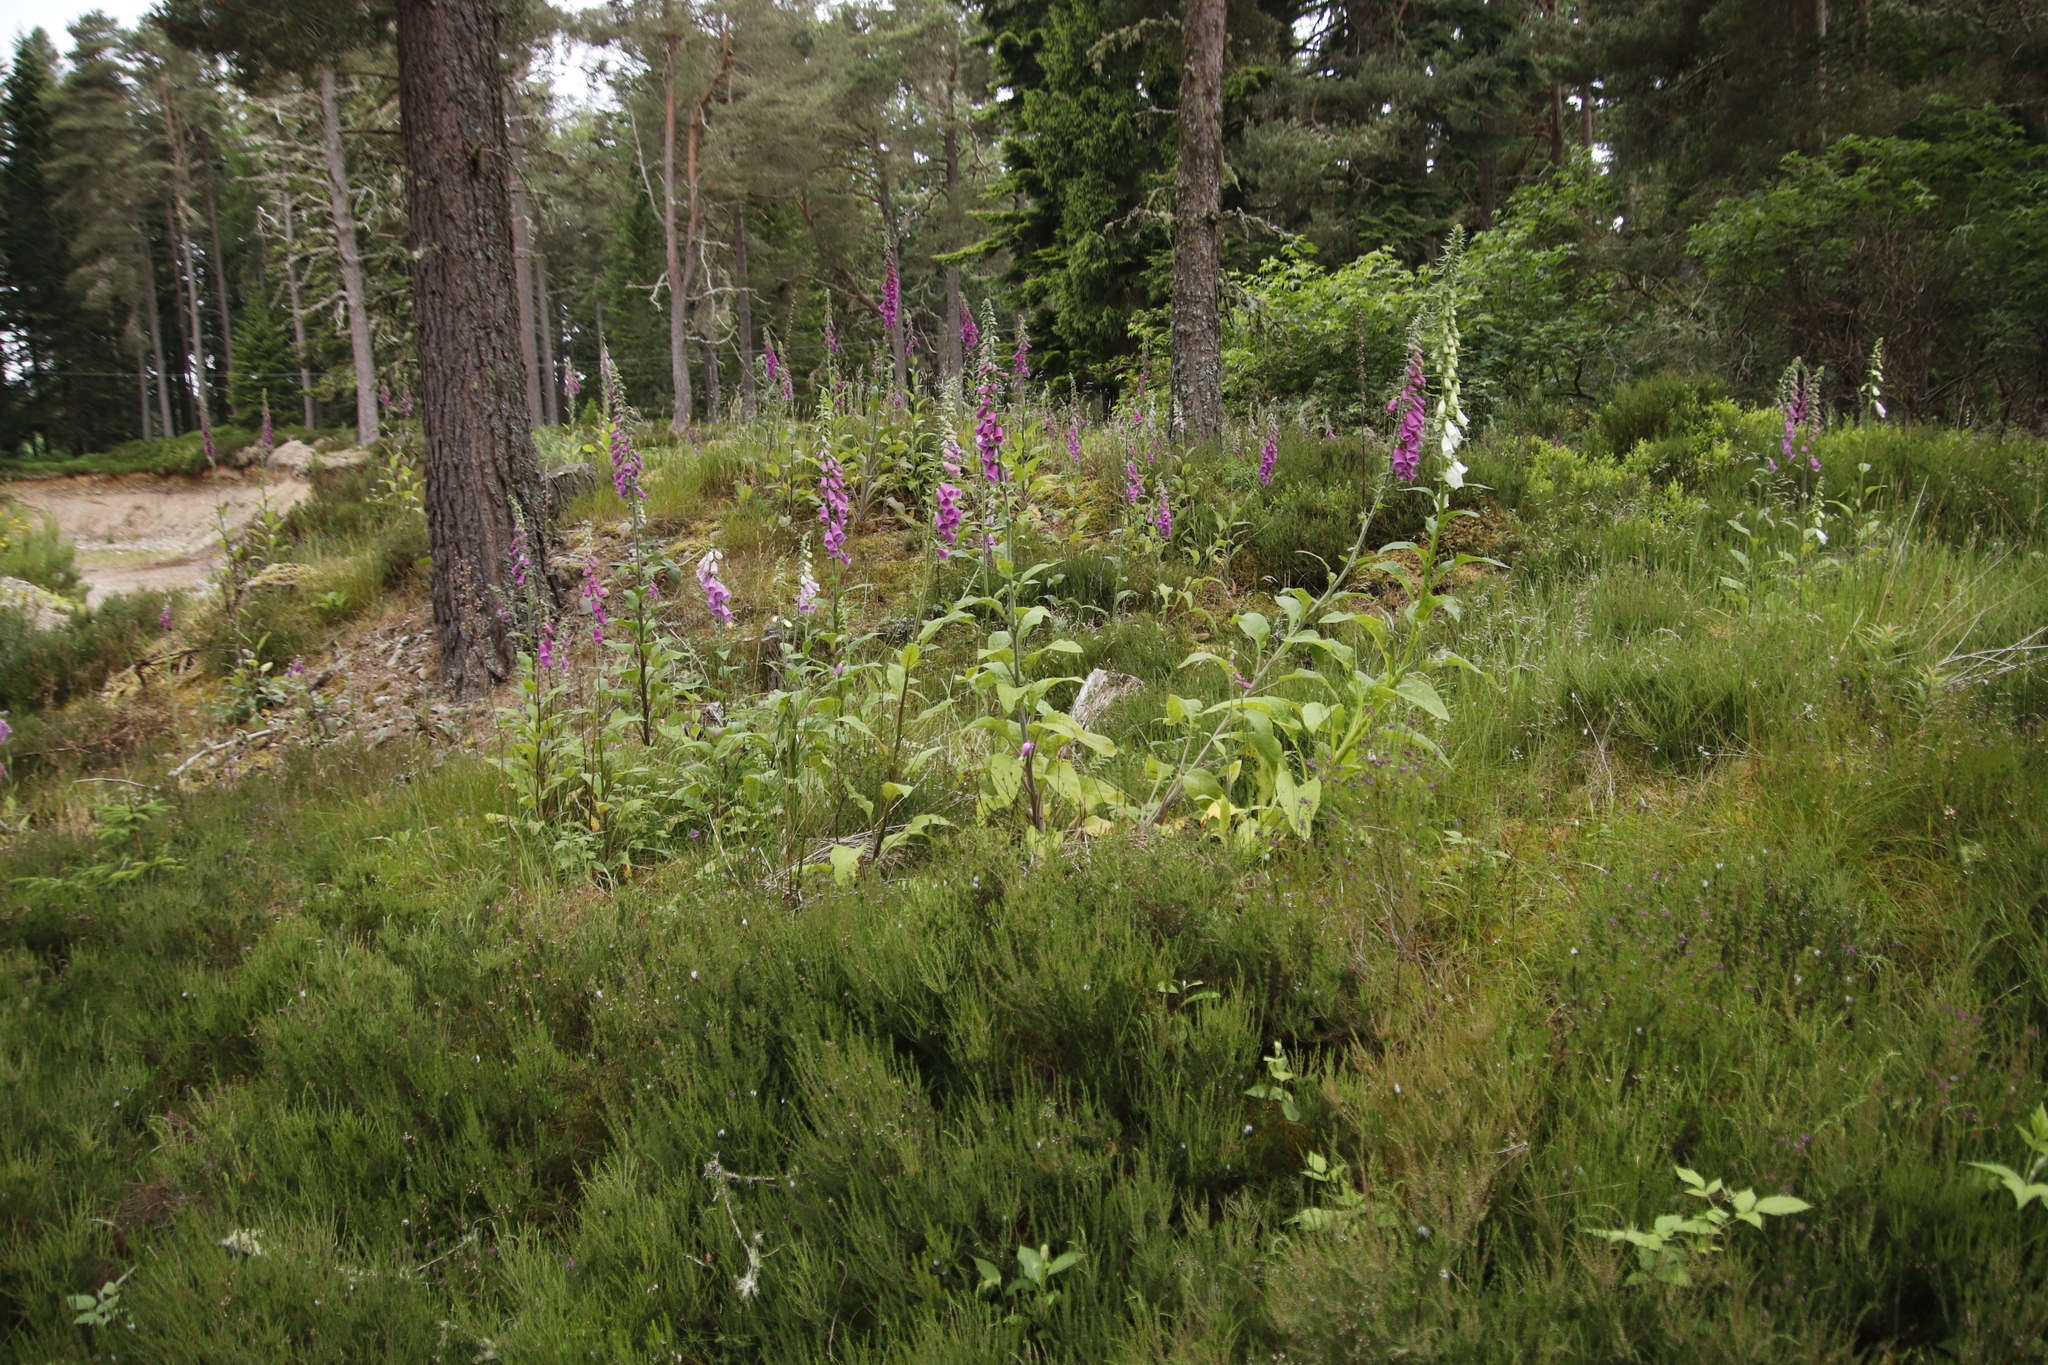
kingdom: Plantae
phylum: Tracheophyta
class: Magnoliopsida
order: Lamiales
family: Plantaginaceae
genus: Digitalis
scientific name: Digitalis purpurea
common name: Foxglove
